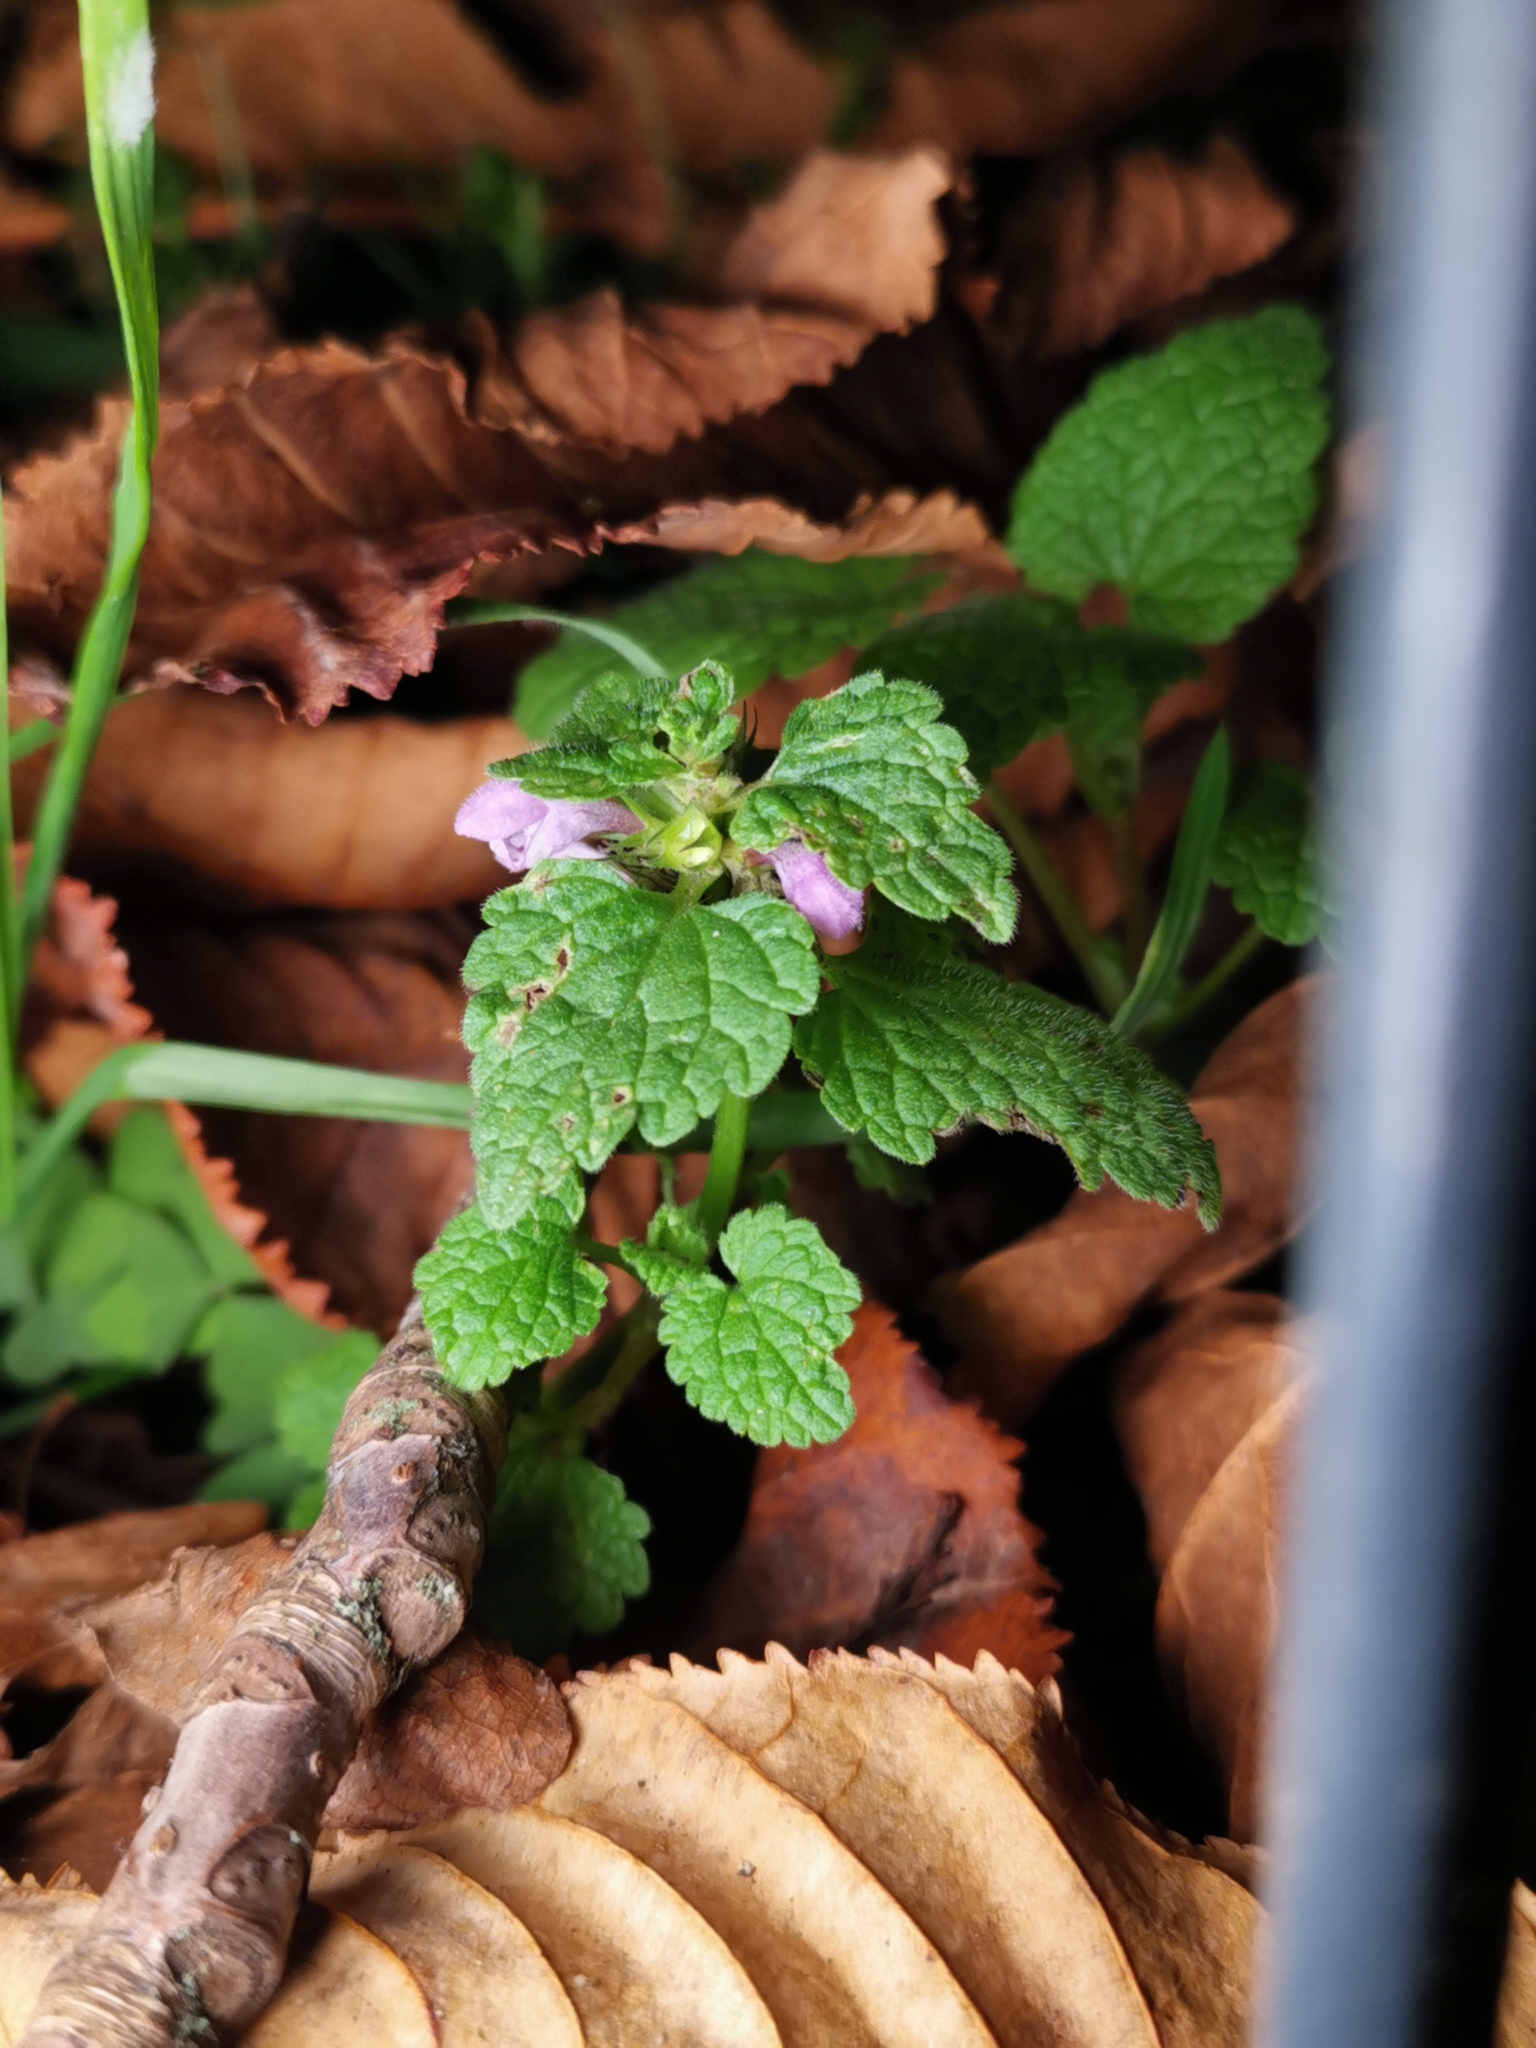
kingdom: Plantae
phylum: Tracheophyta
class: Magnoliopsida
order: Lamiales
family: Lamiaceae
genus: Lamium
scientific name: Lamium purpureum
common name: Red dead-nettle
